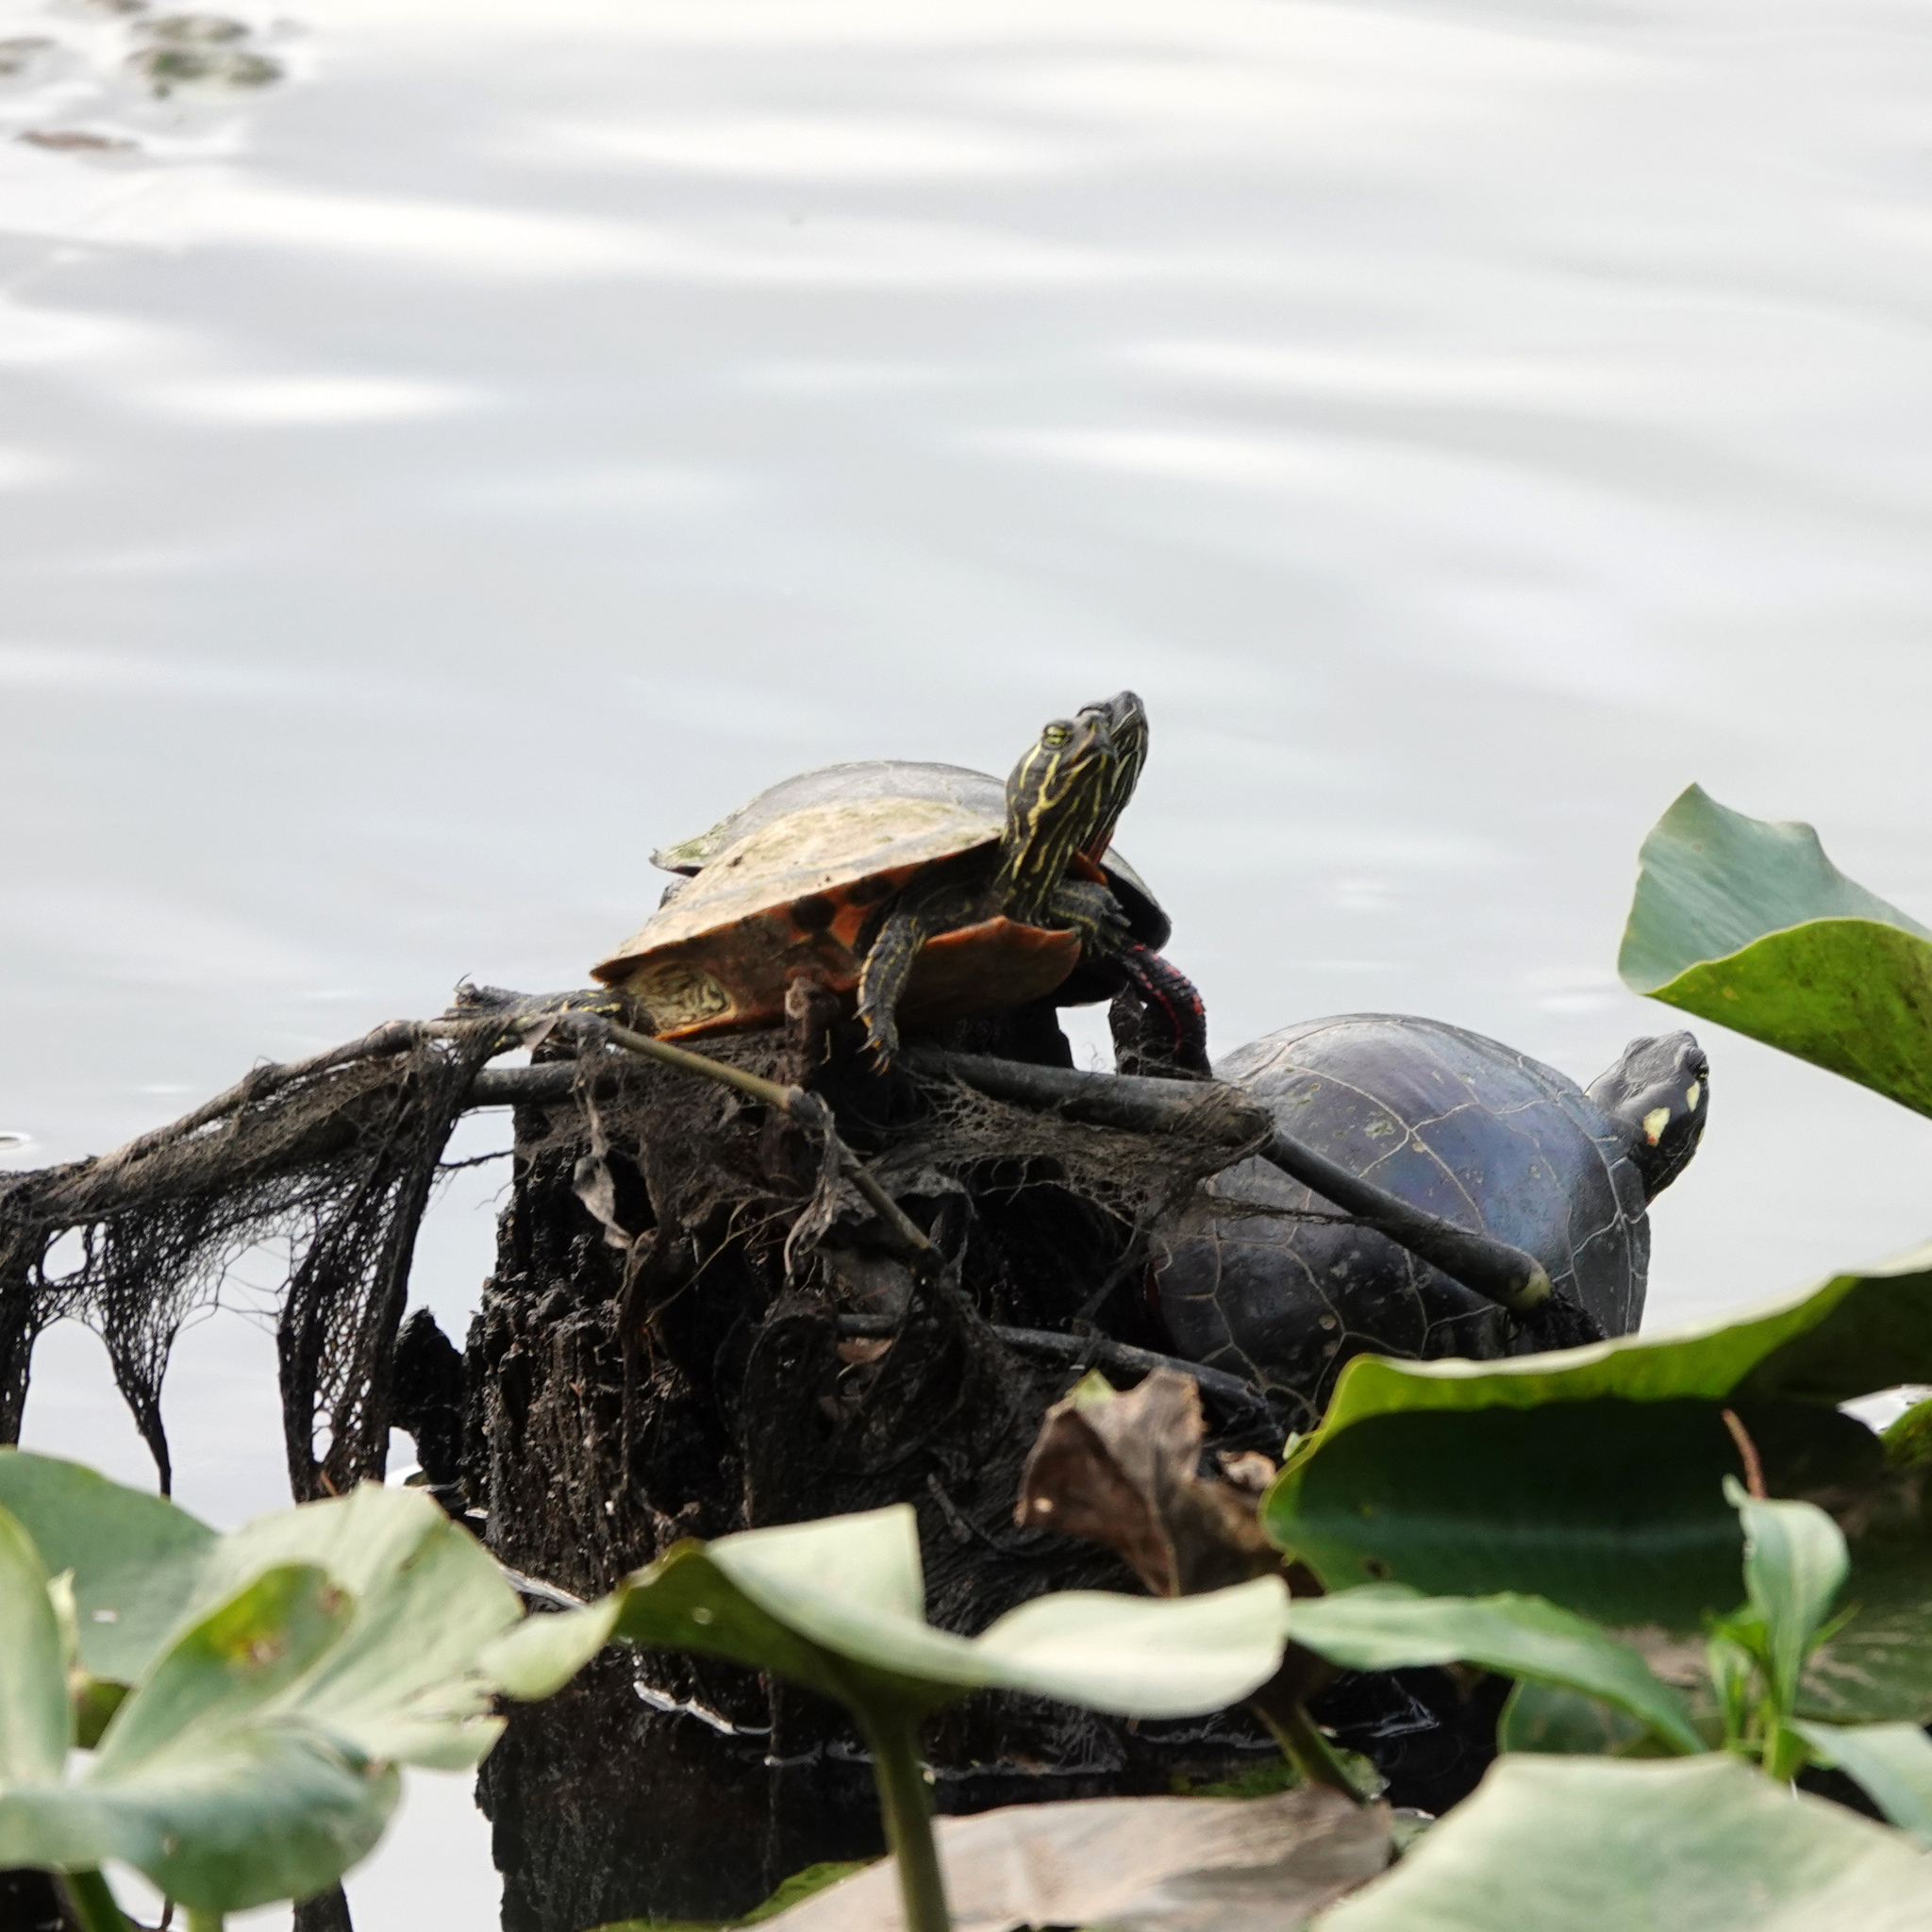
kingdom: Animalia
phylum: Chordata
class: Testudines
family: Emydidae
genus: Pseudemys
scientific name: Pseudemys rubriventris
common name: American red-bellied turtle
